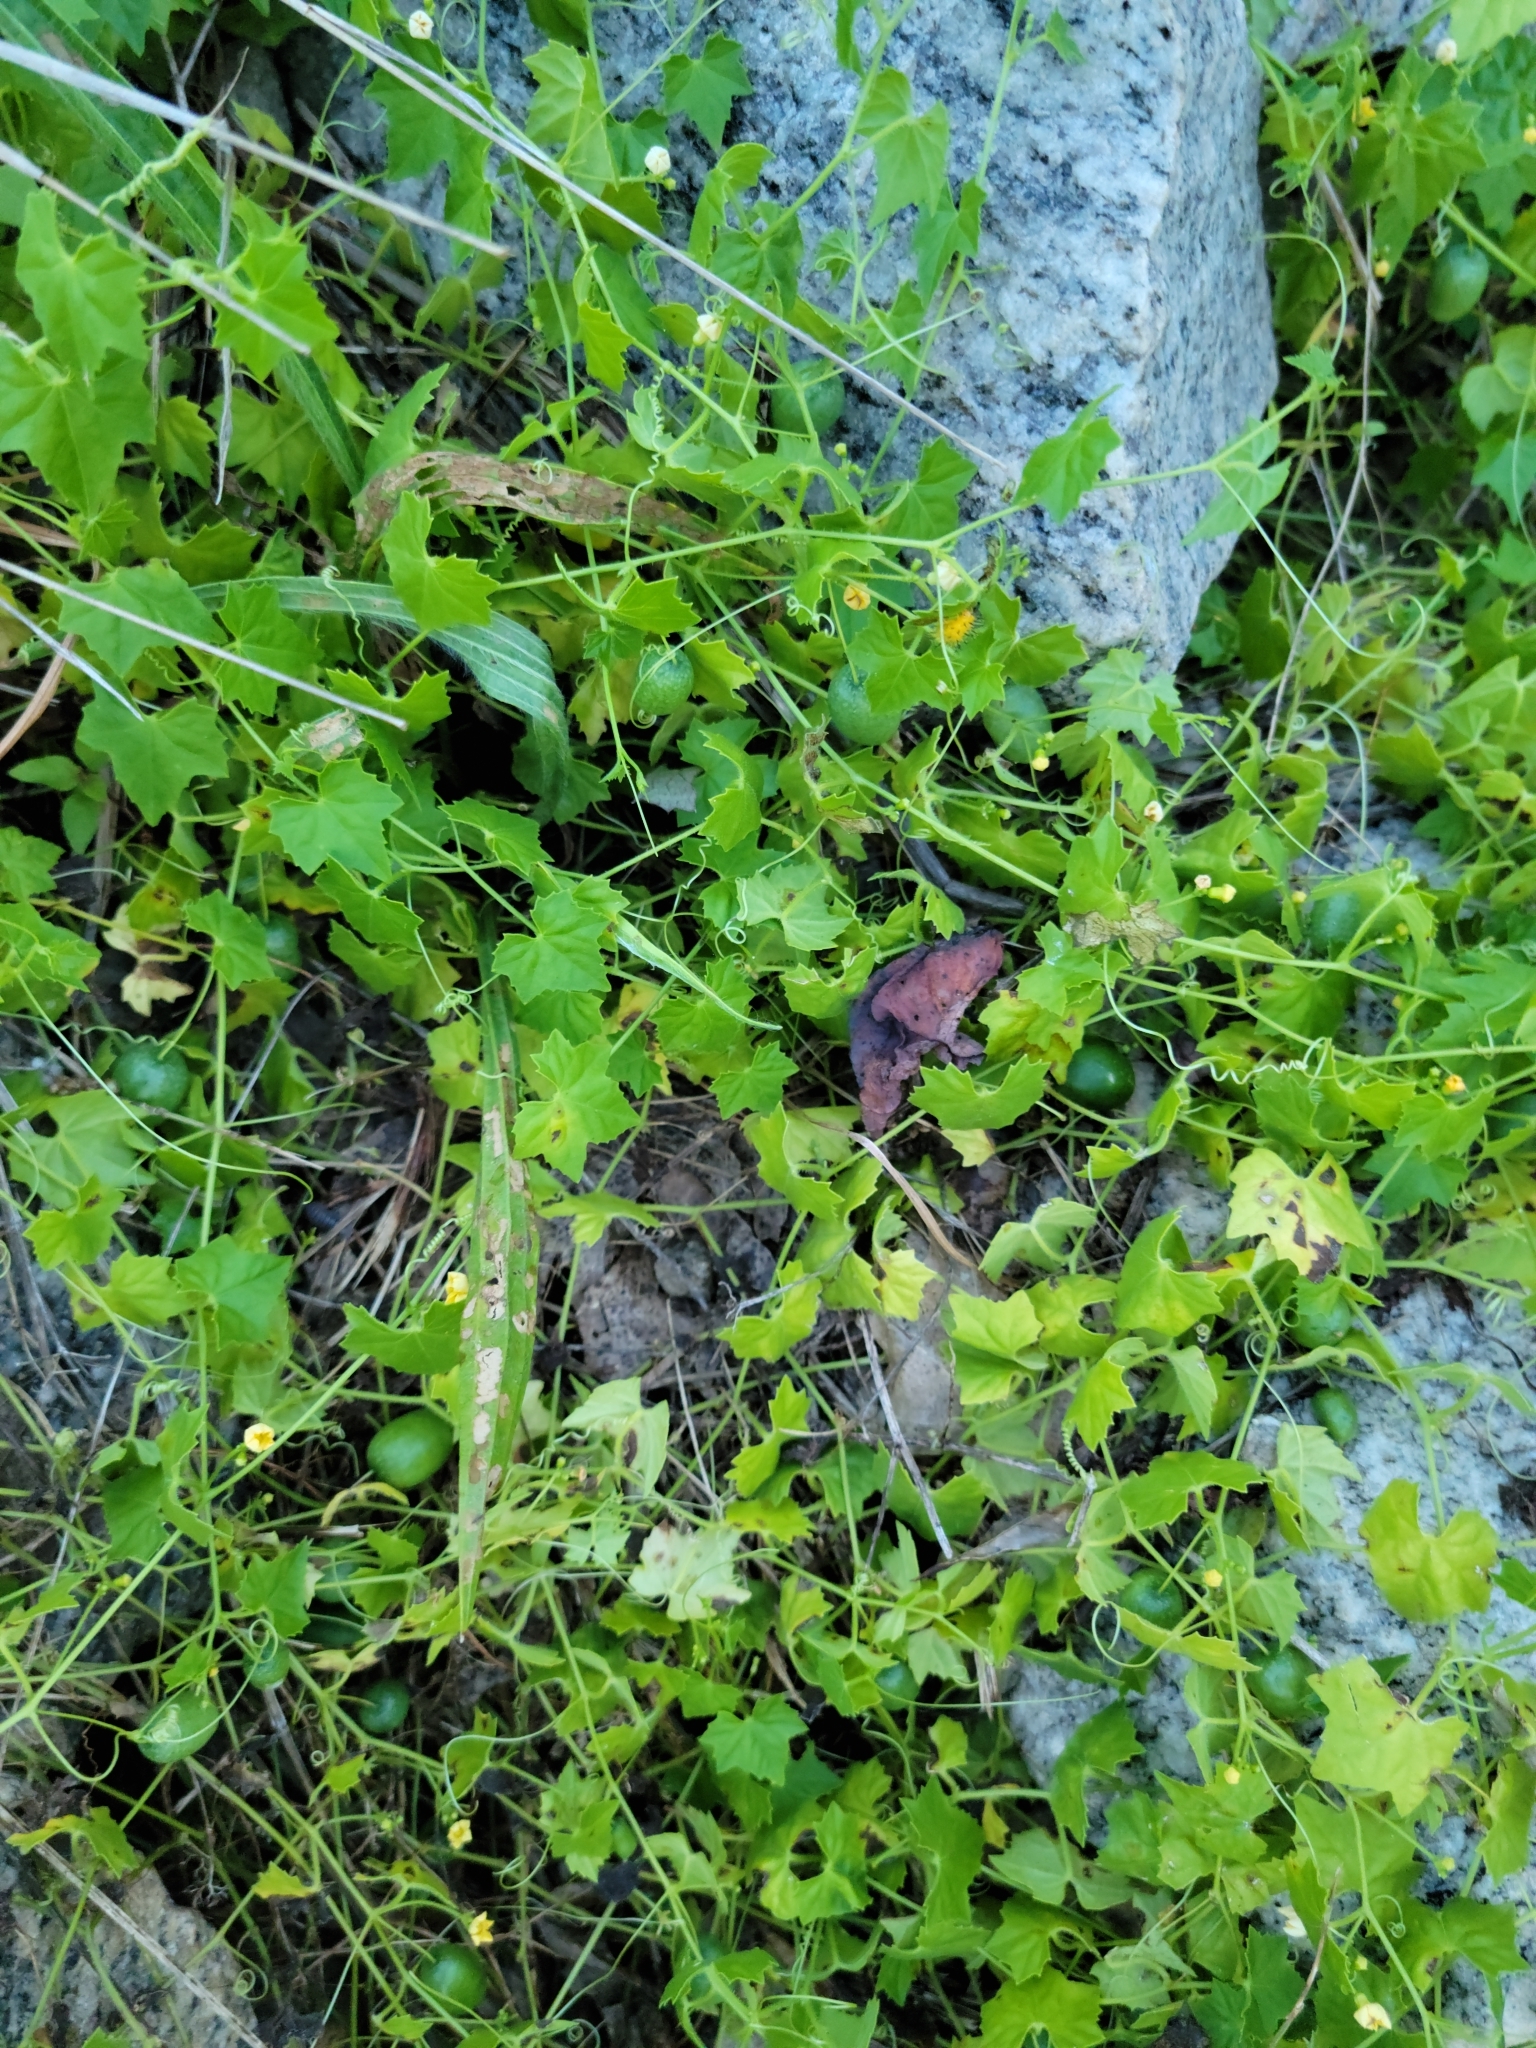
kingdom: Plantae
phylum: Tracheophyta
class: Magnoliopsida
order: Cucurbitales
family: Cucurbitaceae
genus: Melothria
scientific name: Melothria pendula
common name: Creeping-cucumber
